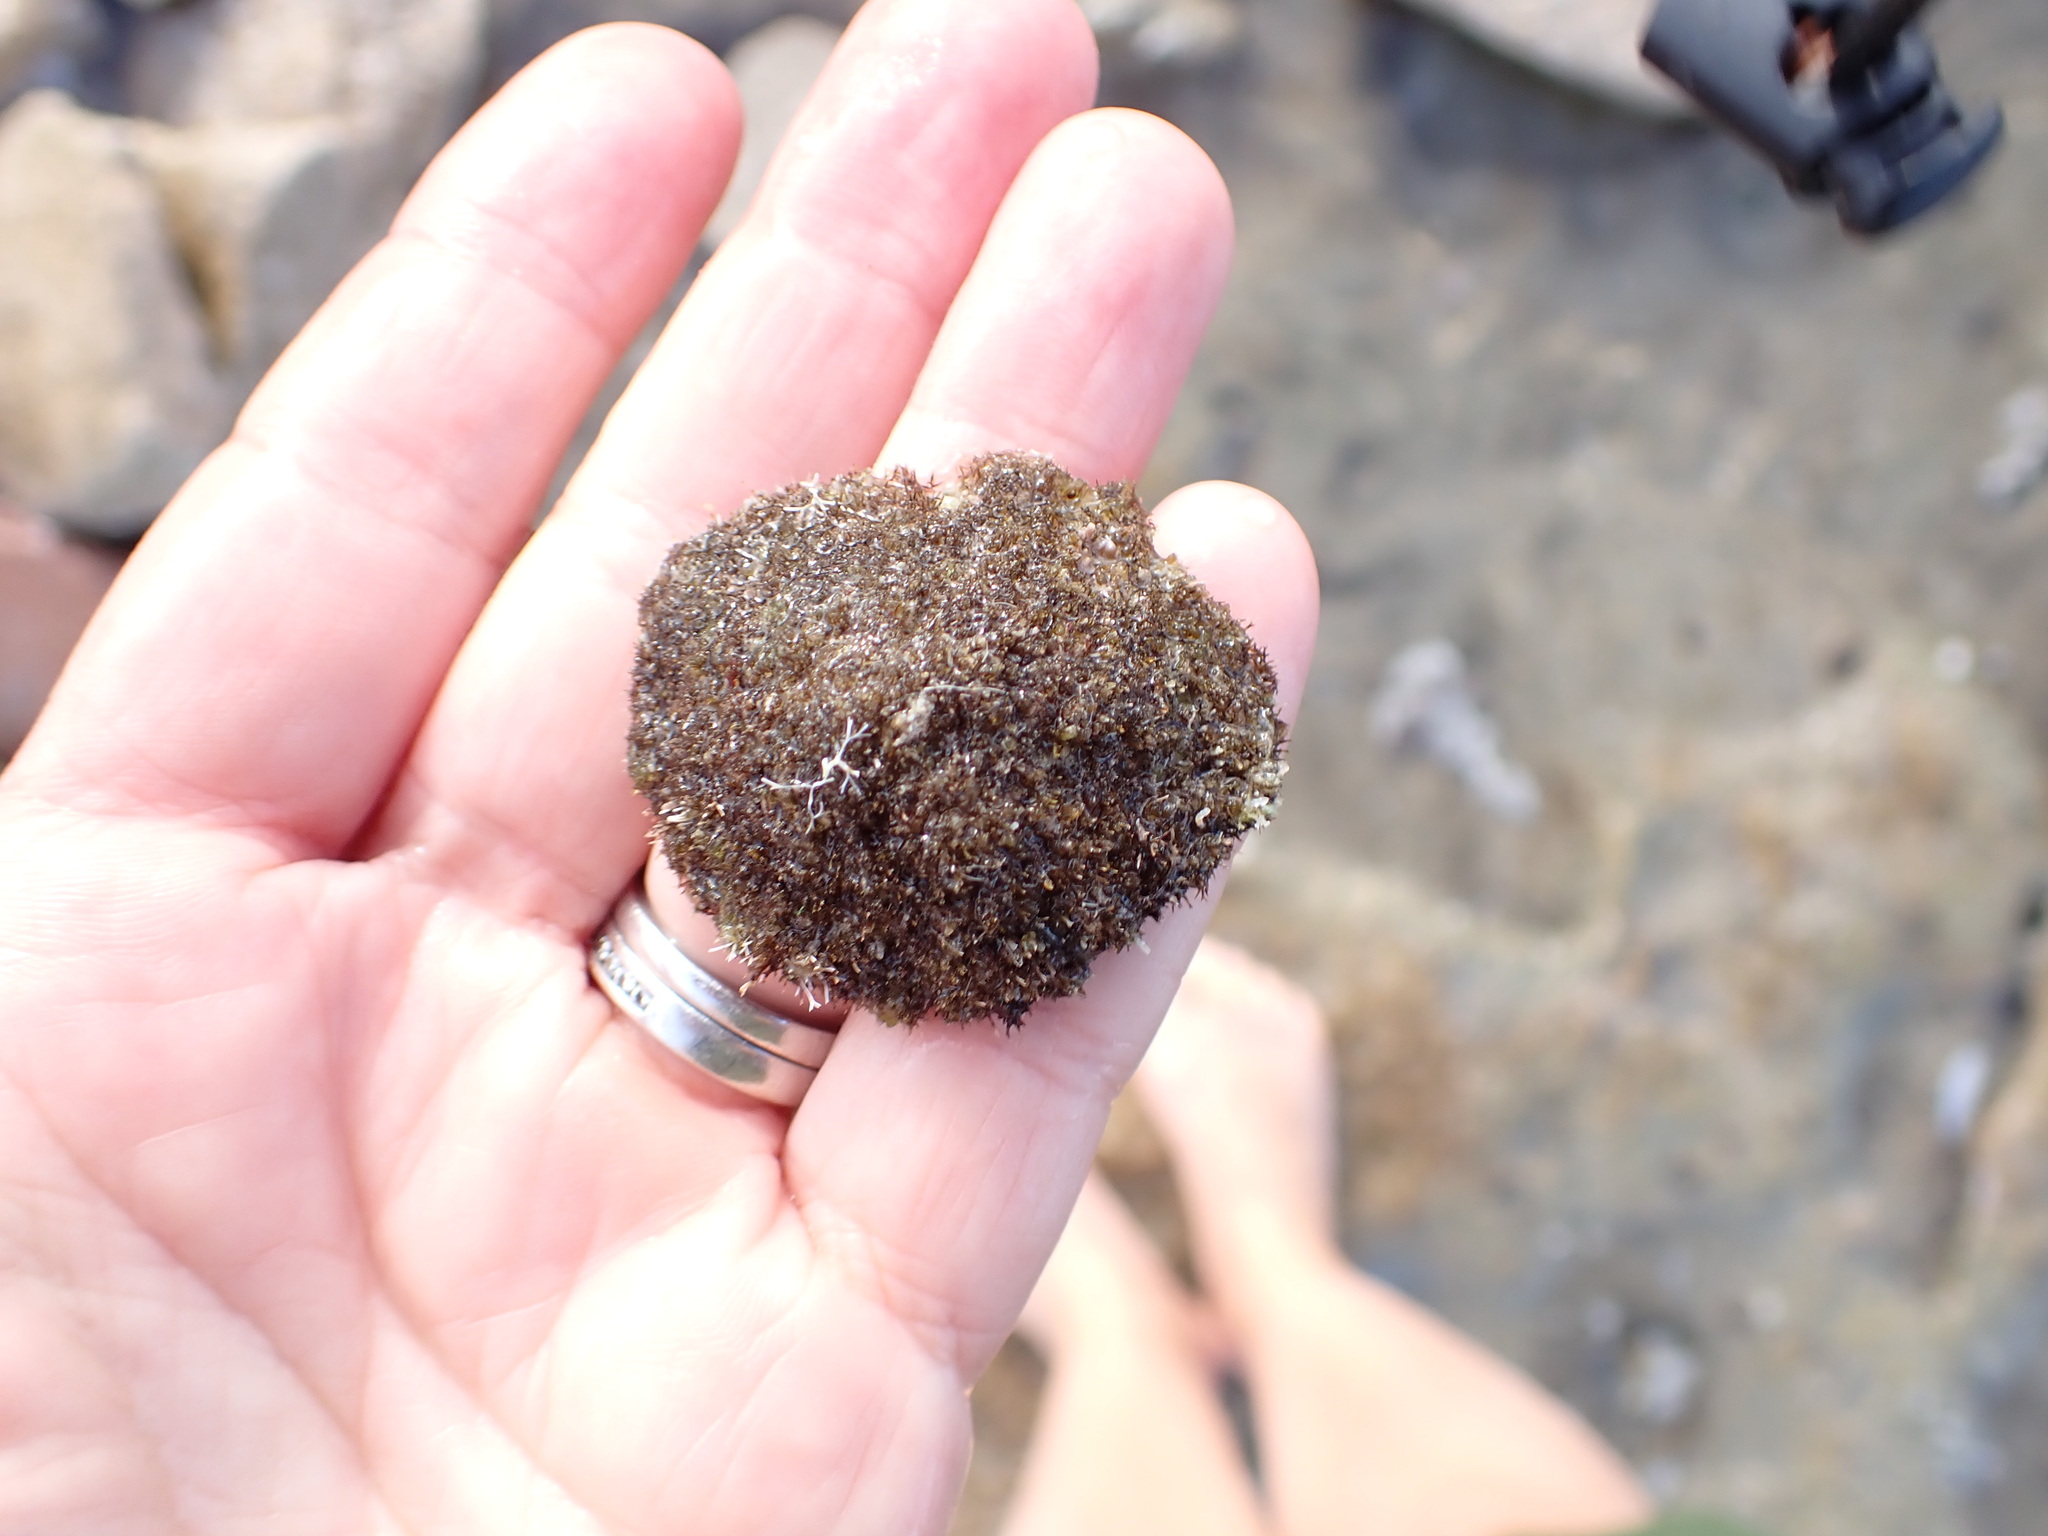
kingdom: Animalia
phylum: Mollusca
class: Gastropoda
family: Patellidae
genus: Patella
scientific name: Patella caerulea
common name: Mediterranean limpet
